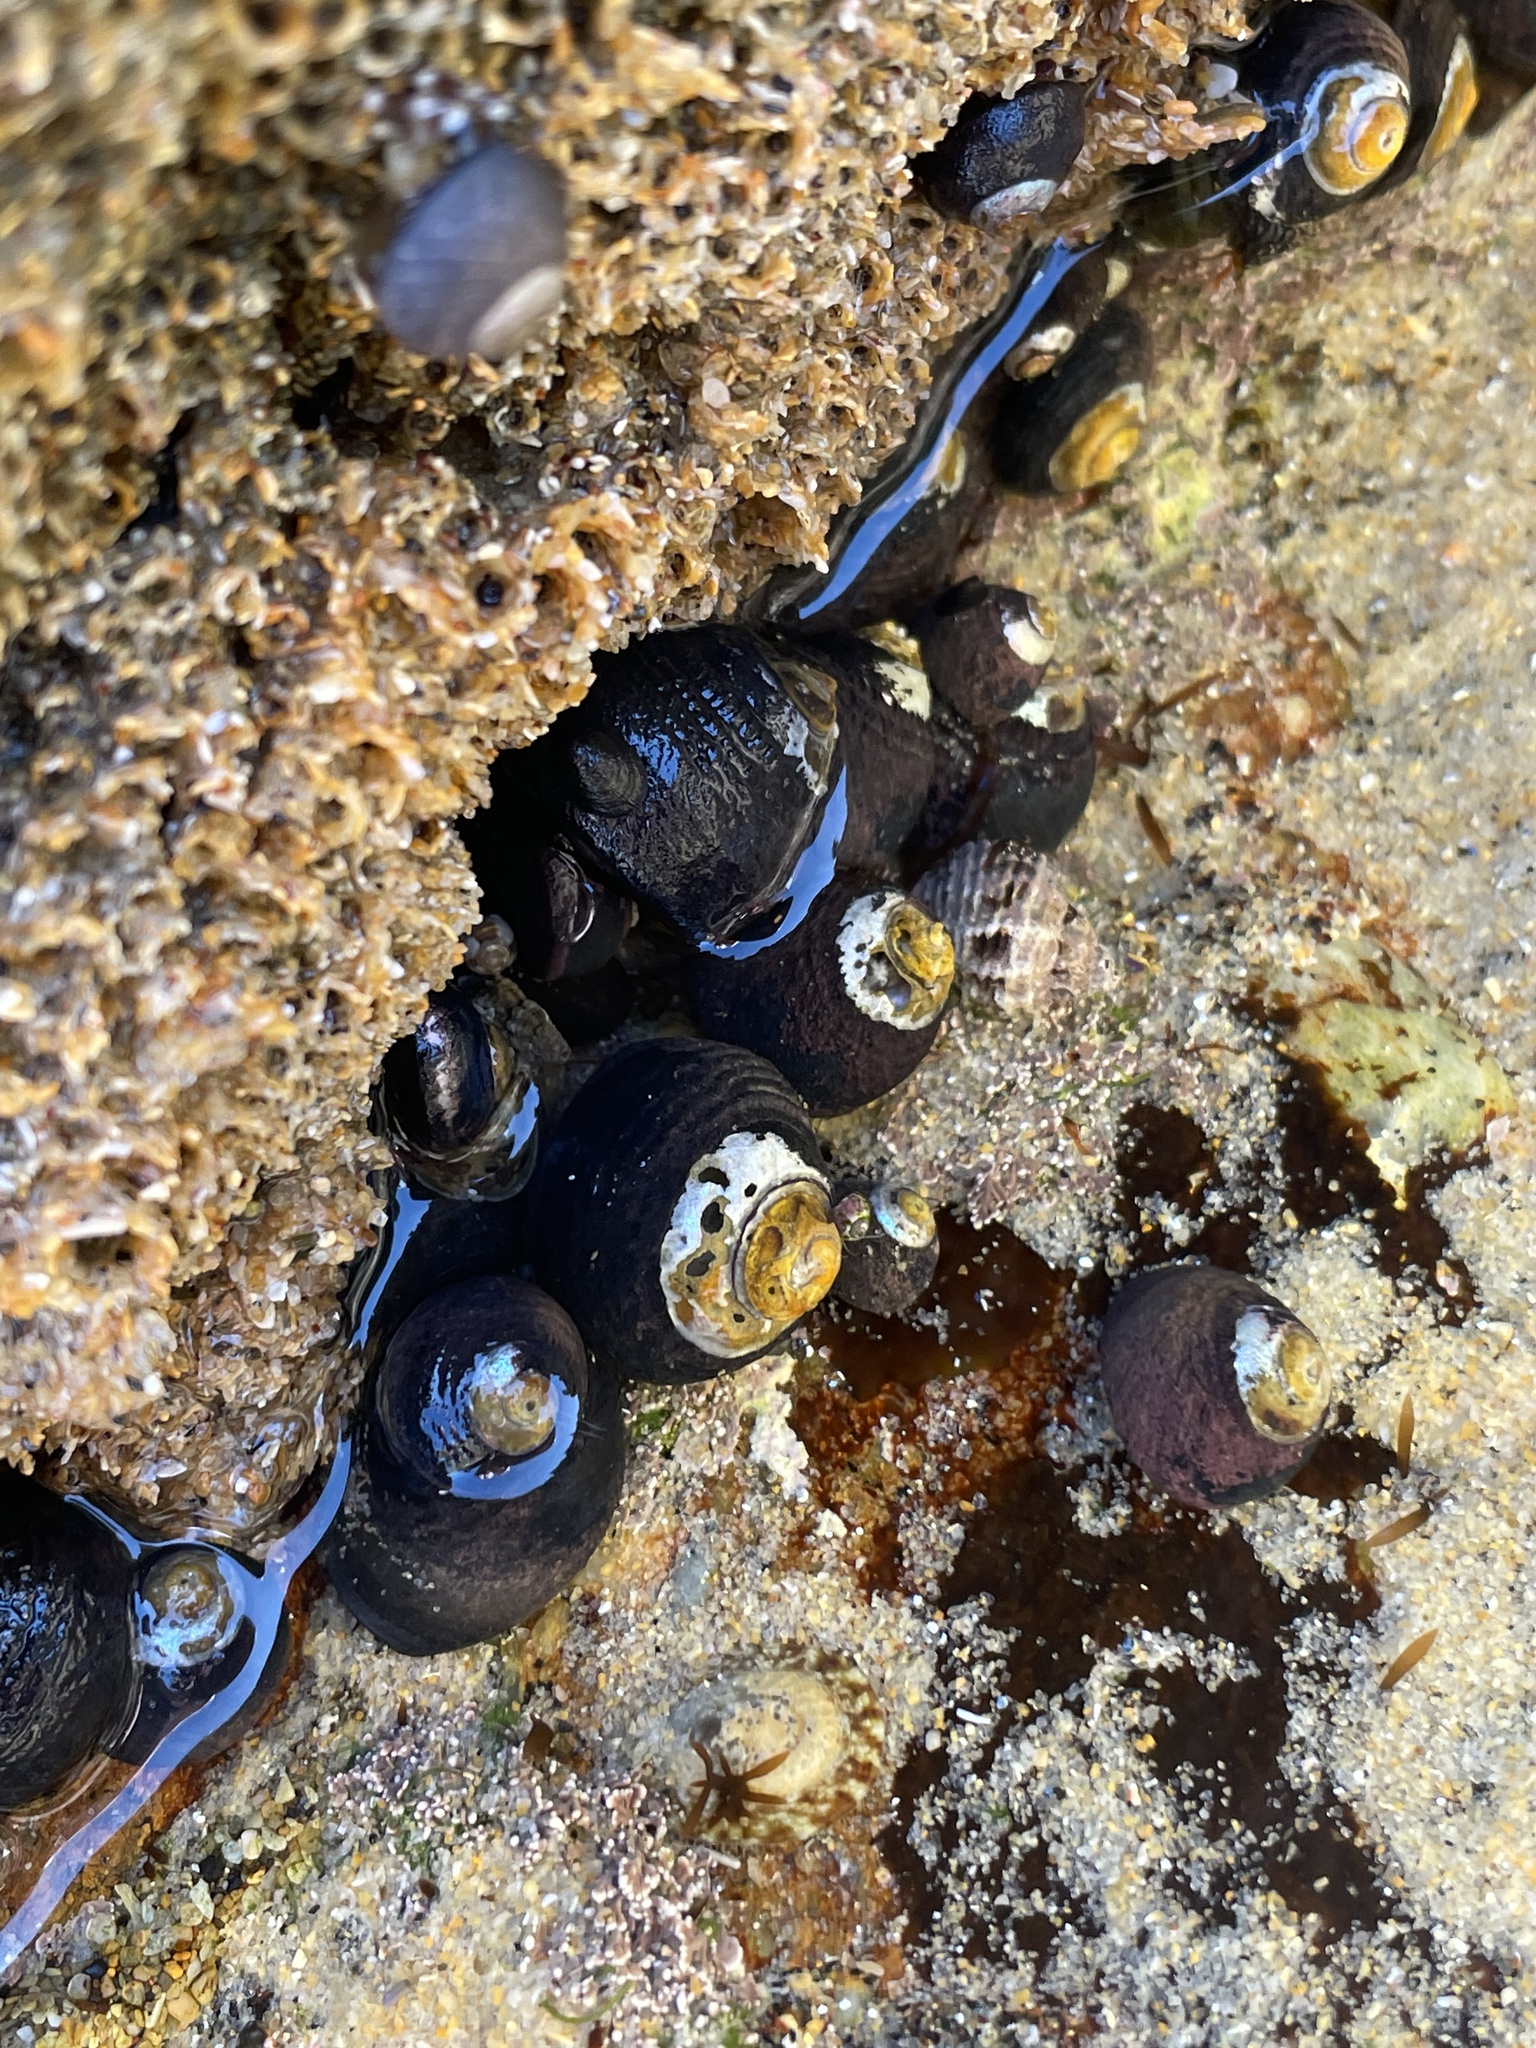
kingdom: Animalia
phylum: Mollusca
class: Gastropoda
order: Trochida
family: Tegulidae
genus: Tegula
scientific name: Tegula funebralis
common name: Black tegula
